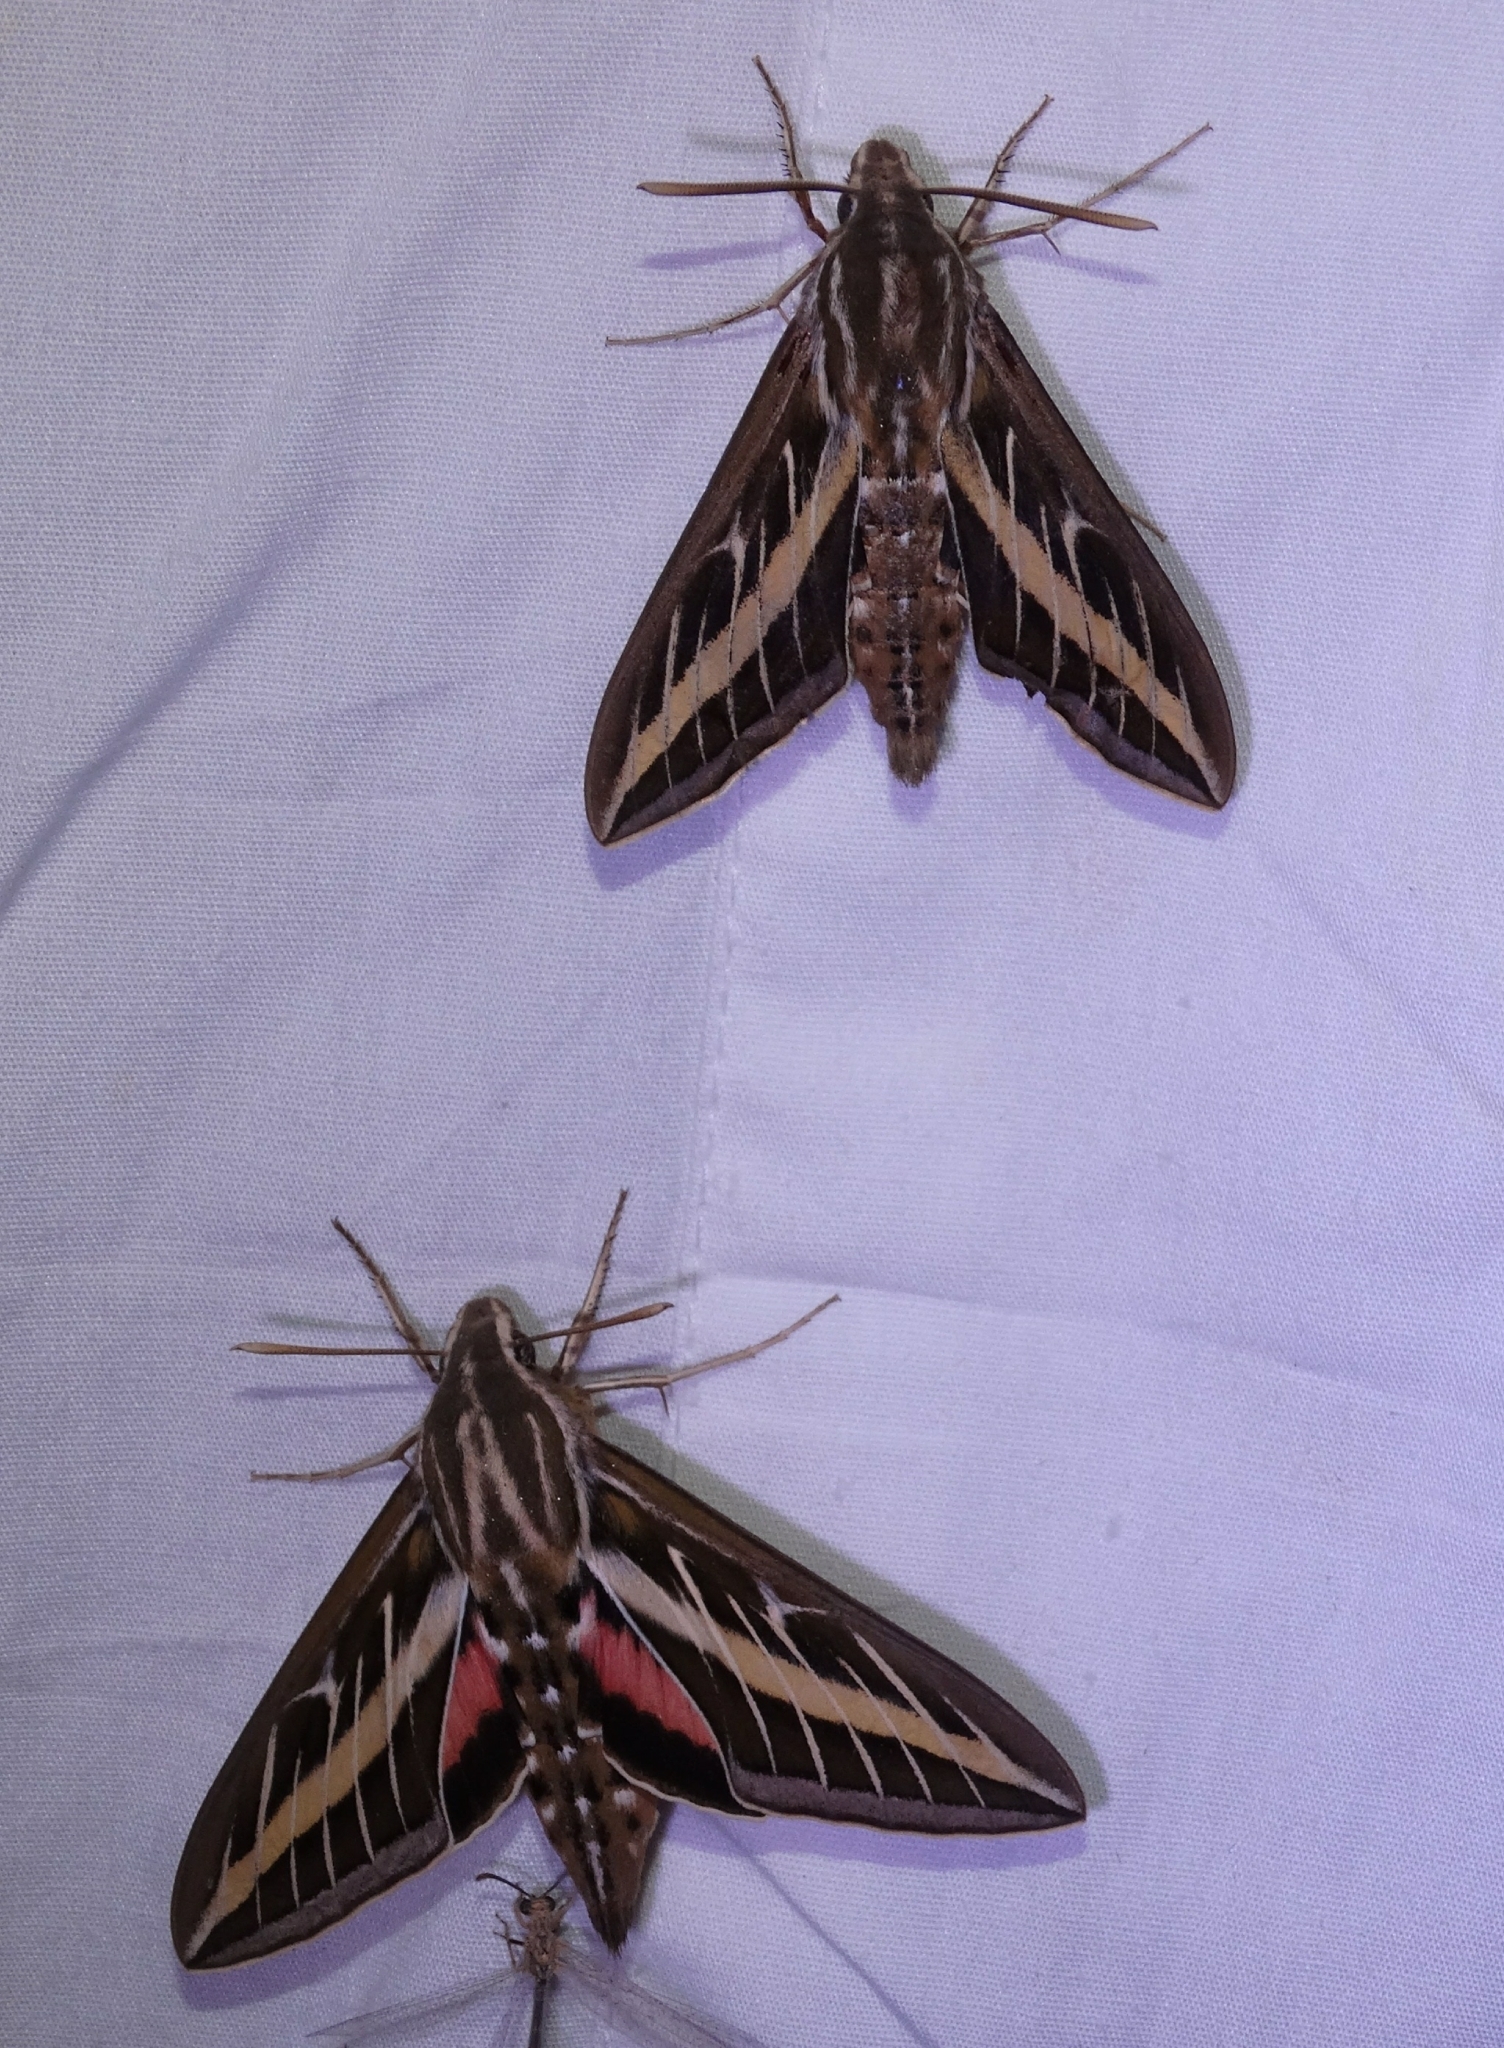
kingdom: Animalia
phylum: Arthropoda
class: Insecta
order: Lepidoptera
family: Sphingidae
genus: Hyles
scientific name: Hyles lineata
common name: White-lined sphinx
